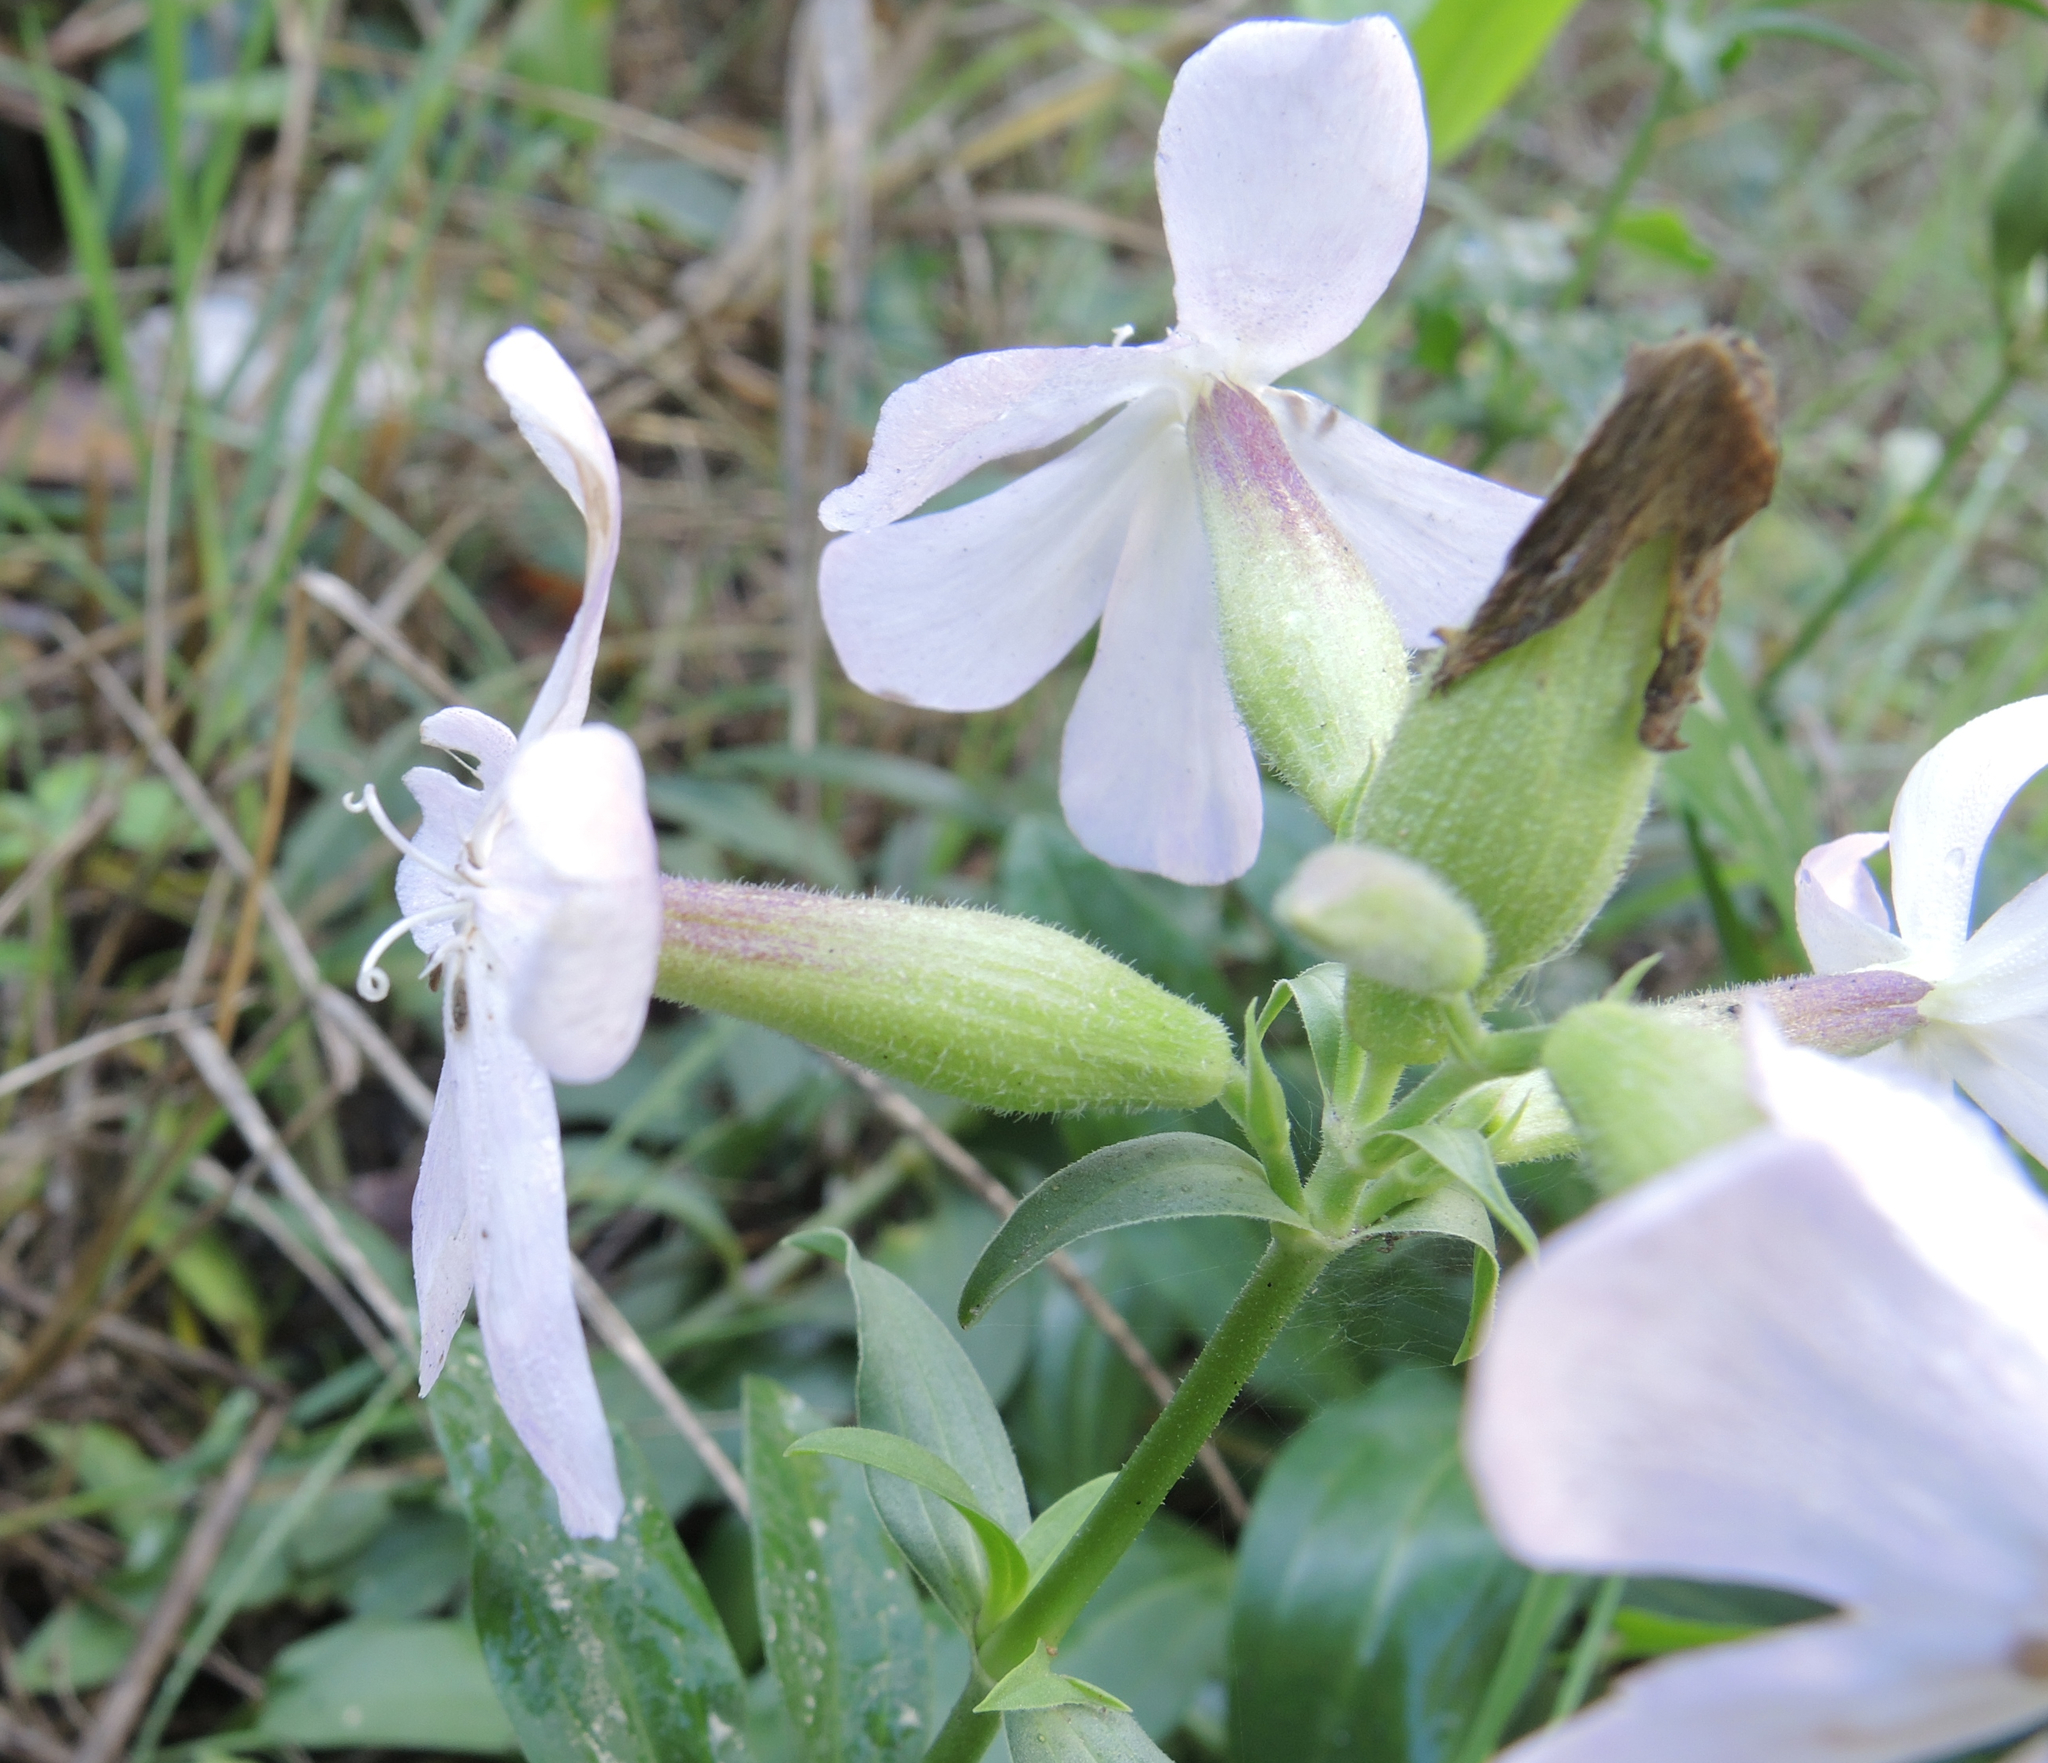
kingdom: Plantae
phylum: Tracheophyta
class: Magnoliopsida
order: Caryophyllales
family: Caryophyllaceae
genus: Saponaria
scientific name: Saponaria officinalis
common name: Soapwort
